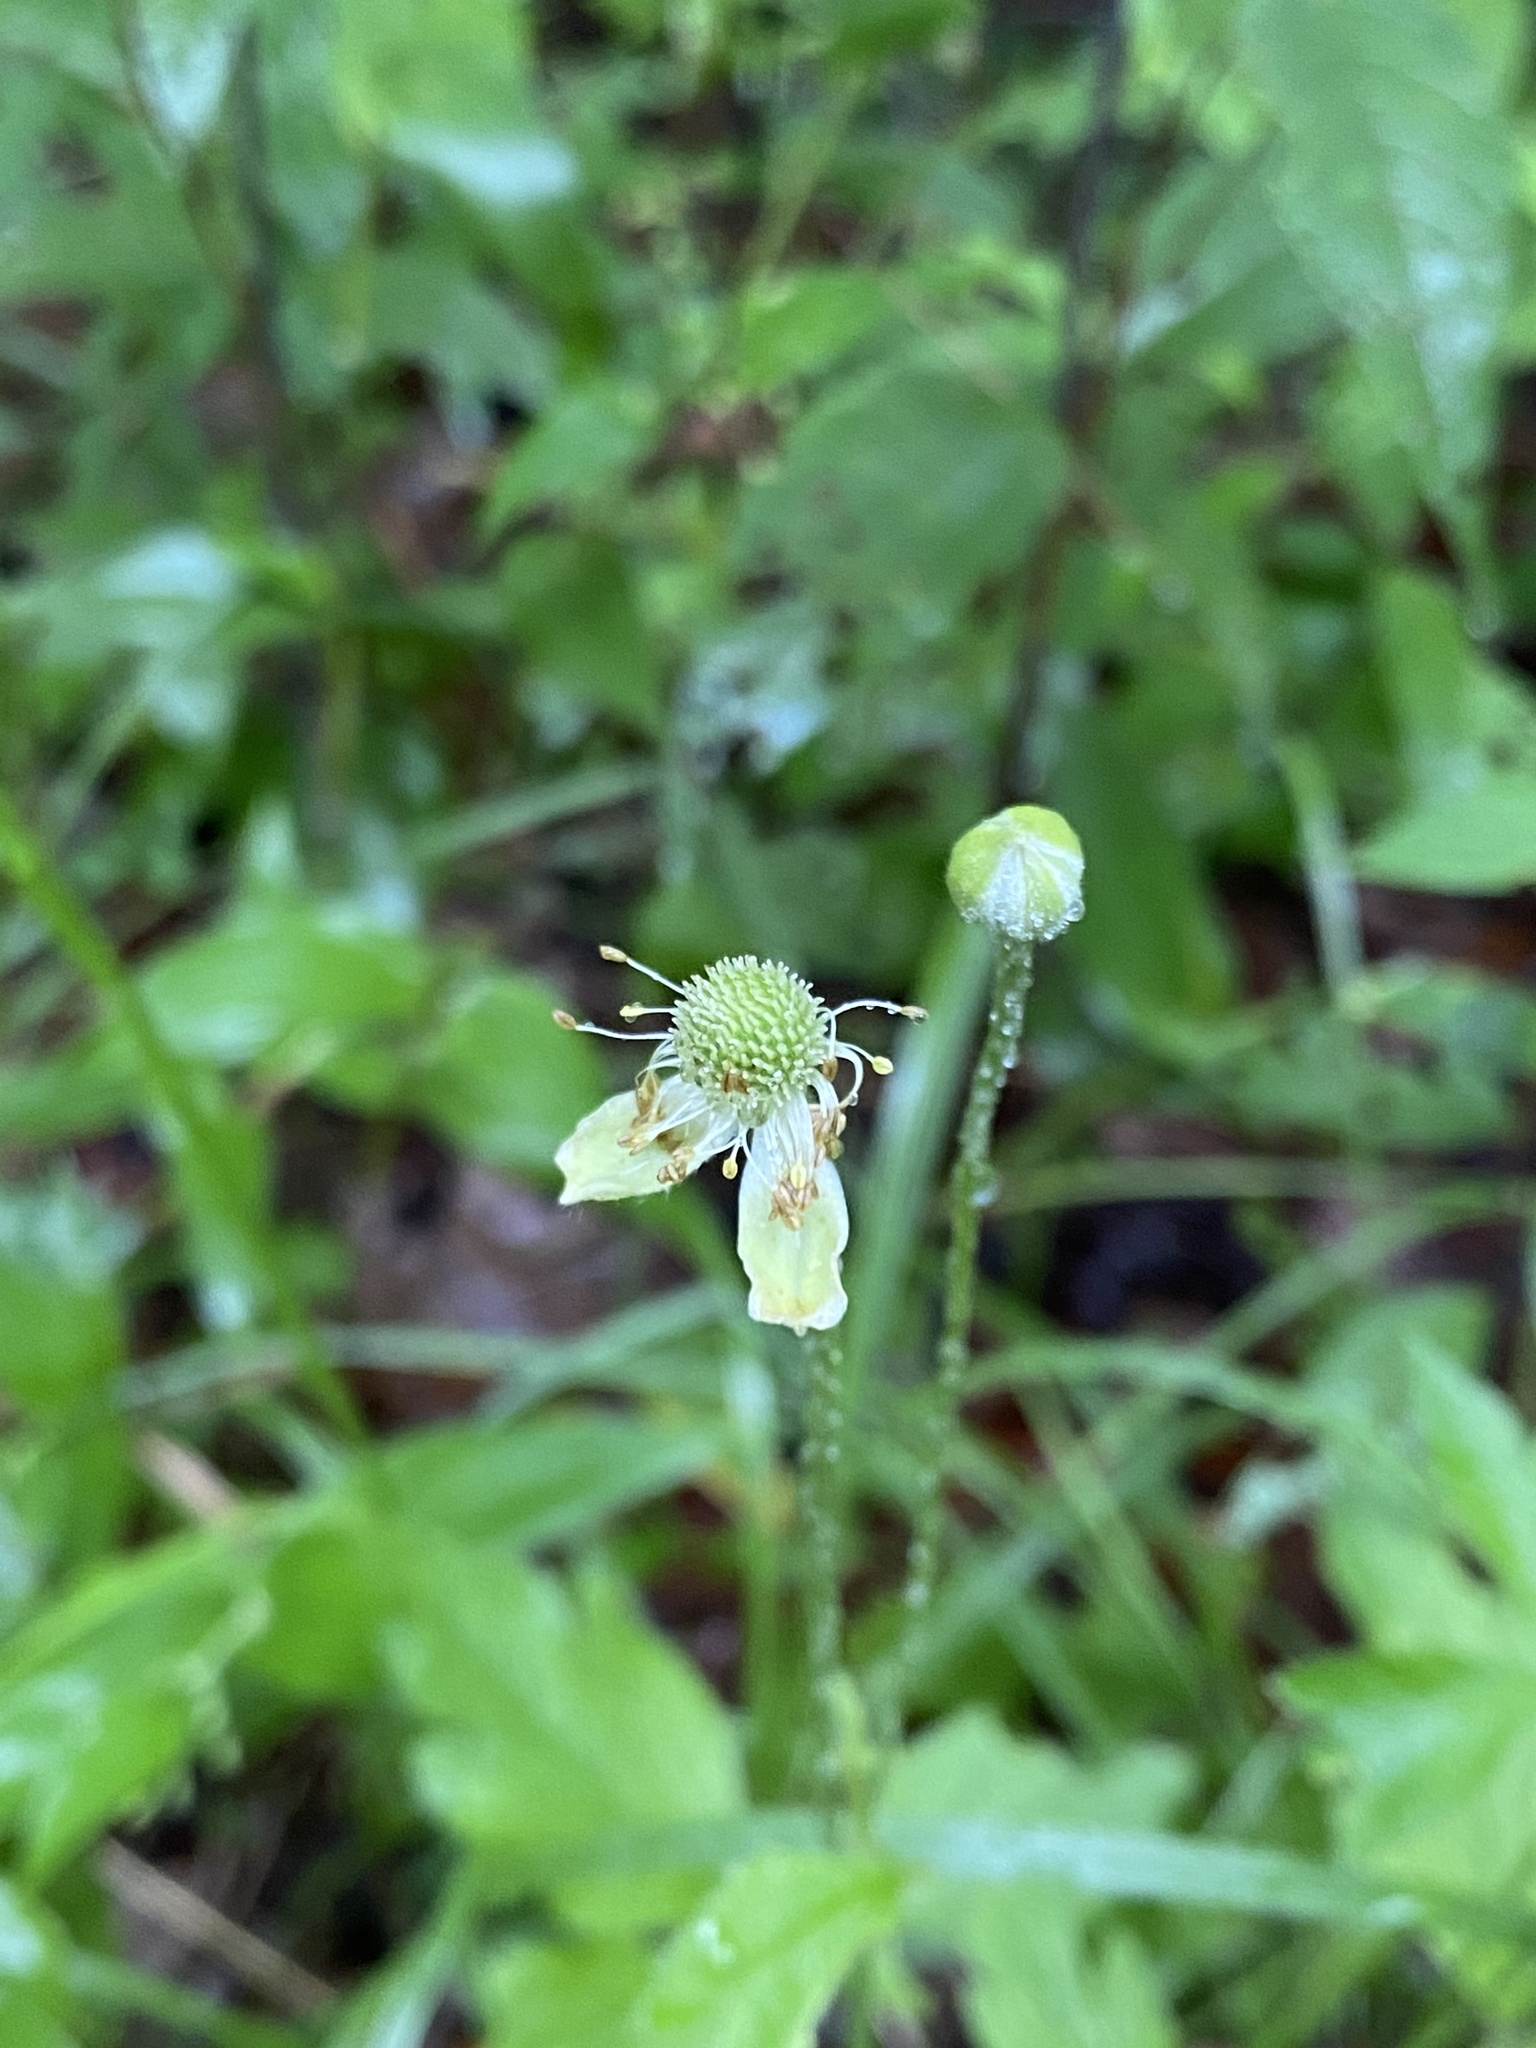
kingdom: Plantae
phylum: Tracheophyta
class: Magnoliopsida
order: Ranunculales
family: Ranunculaceae
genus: Anemone
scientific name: Anemone virginiana
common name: Tall anemone
